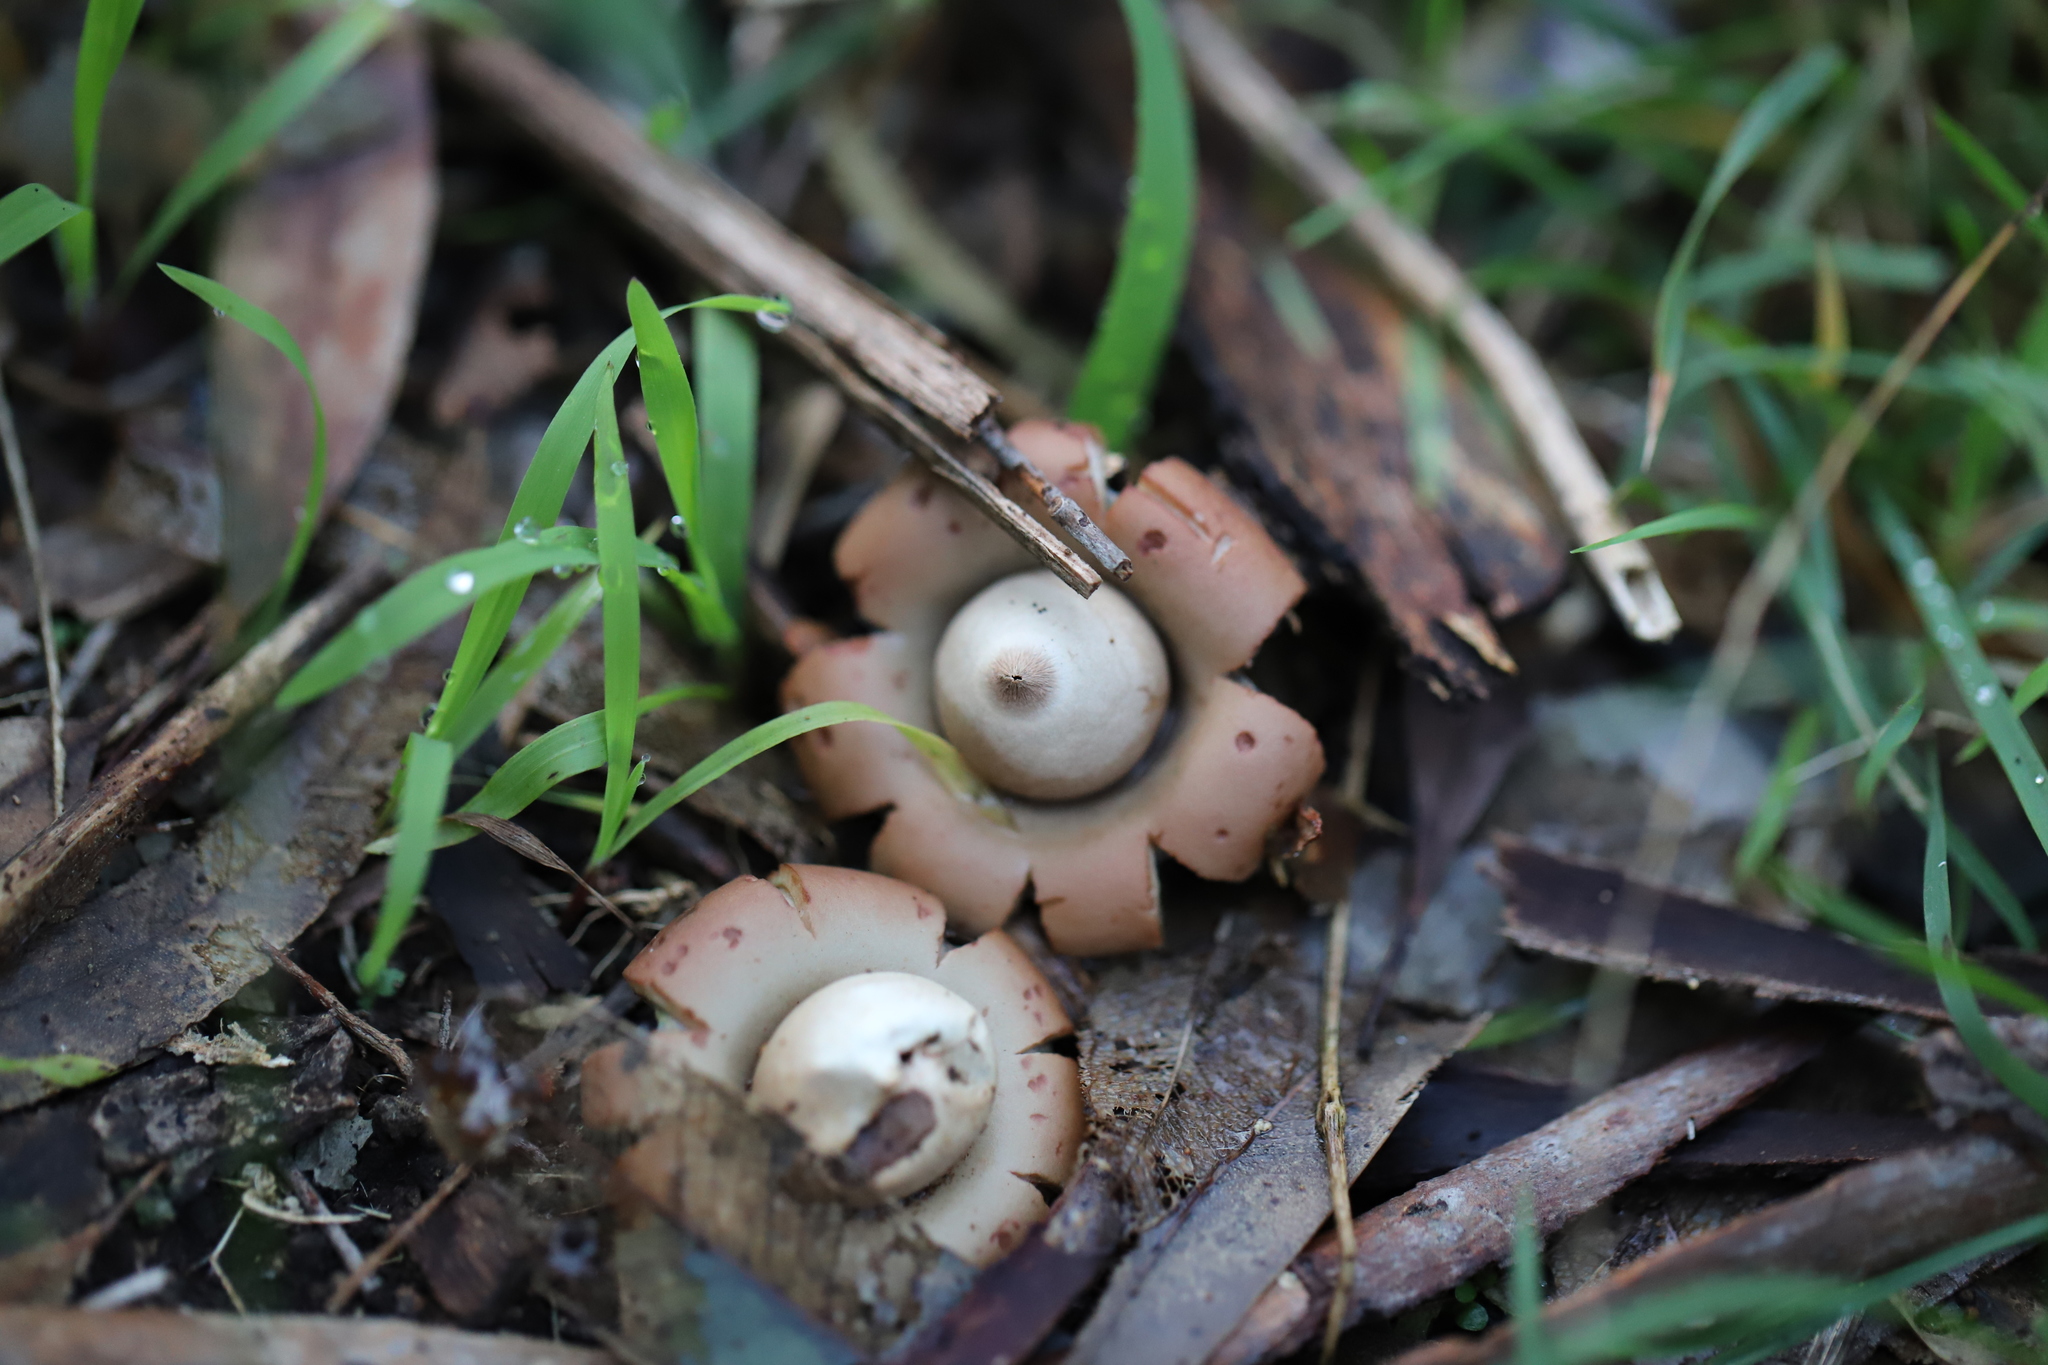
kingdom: Fungi
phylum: Basidiomycota
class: Agaricomycetes
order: Geastrales
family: Geastraceae
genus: Geastrum
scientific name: Geastrum triplex
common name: Collared earthstar
